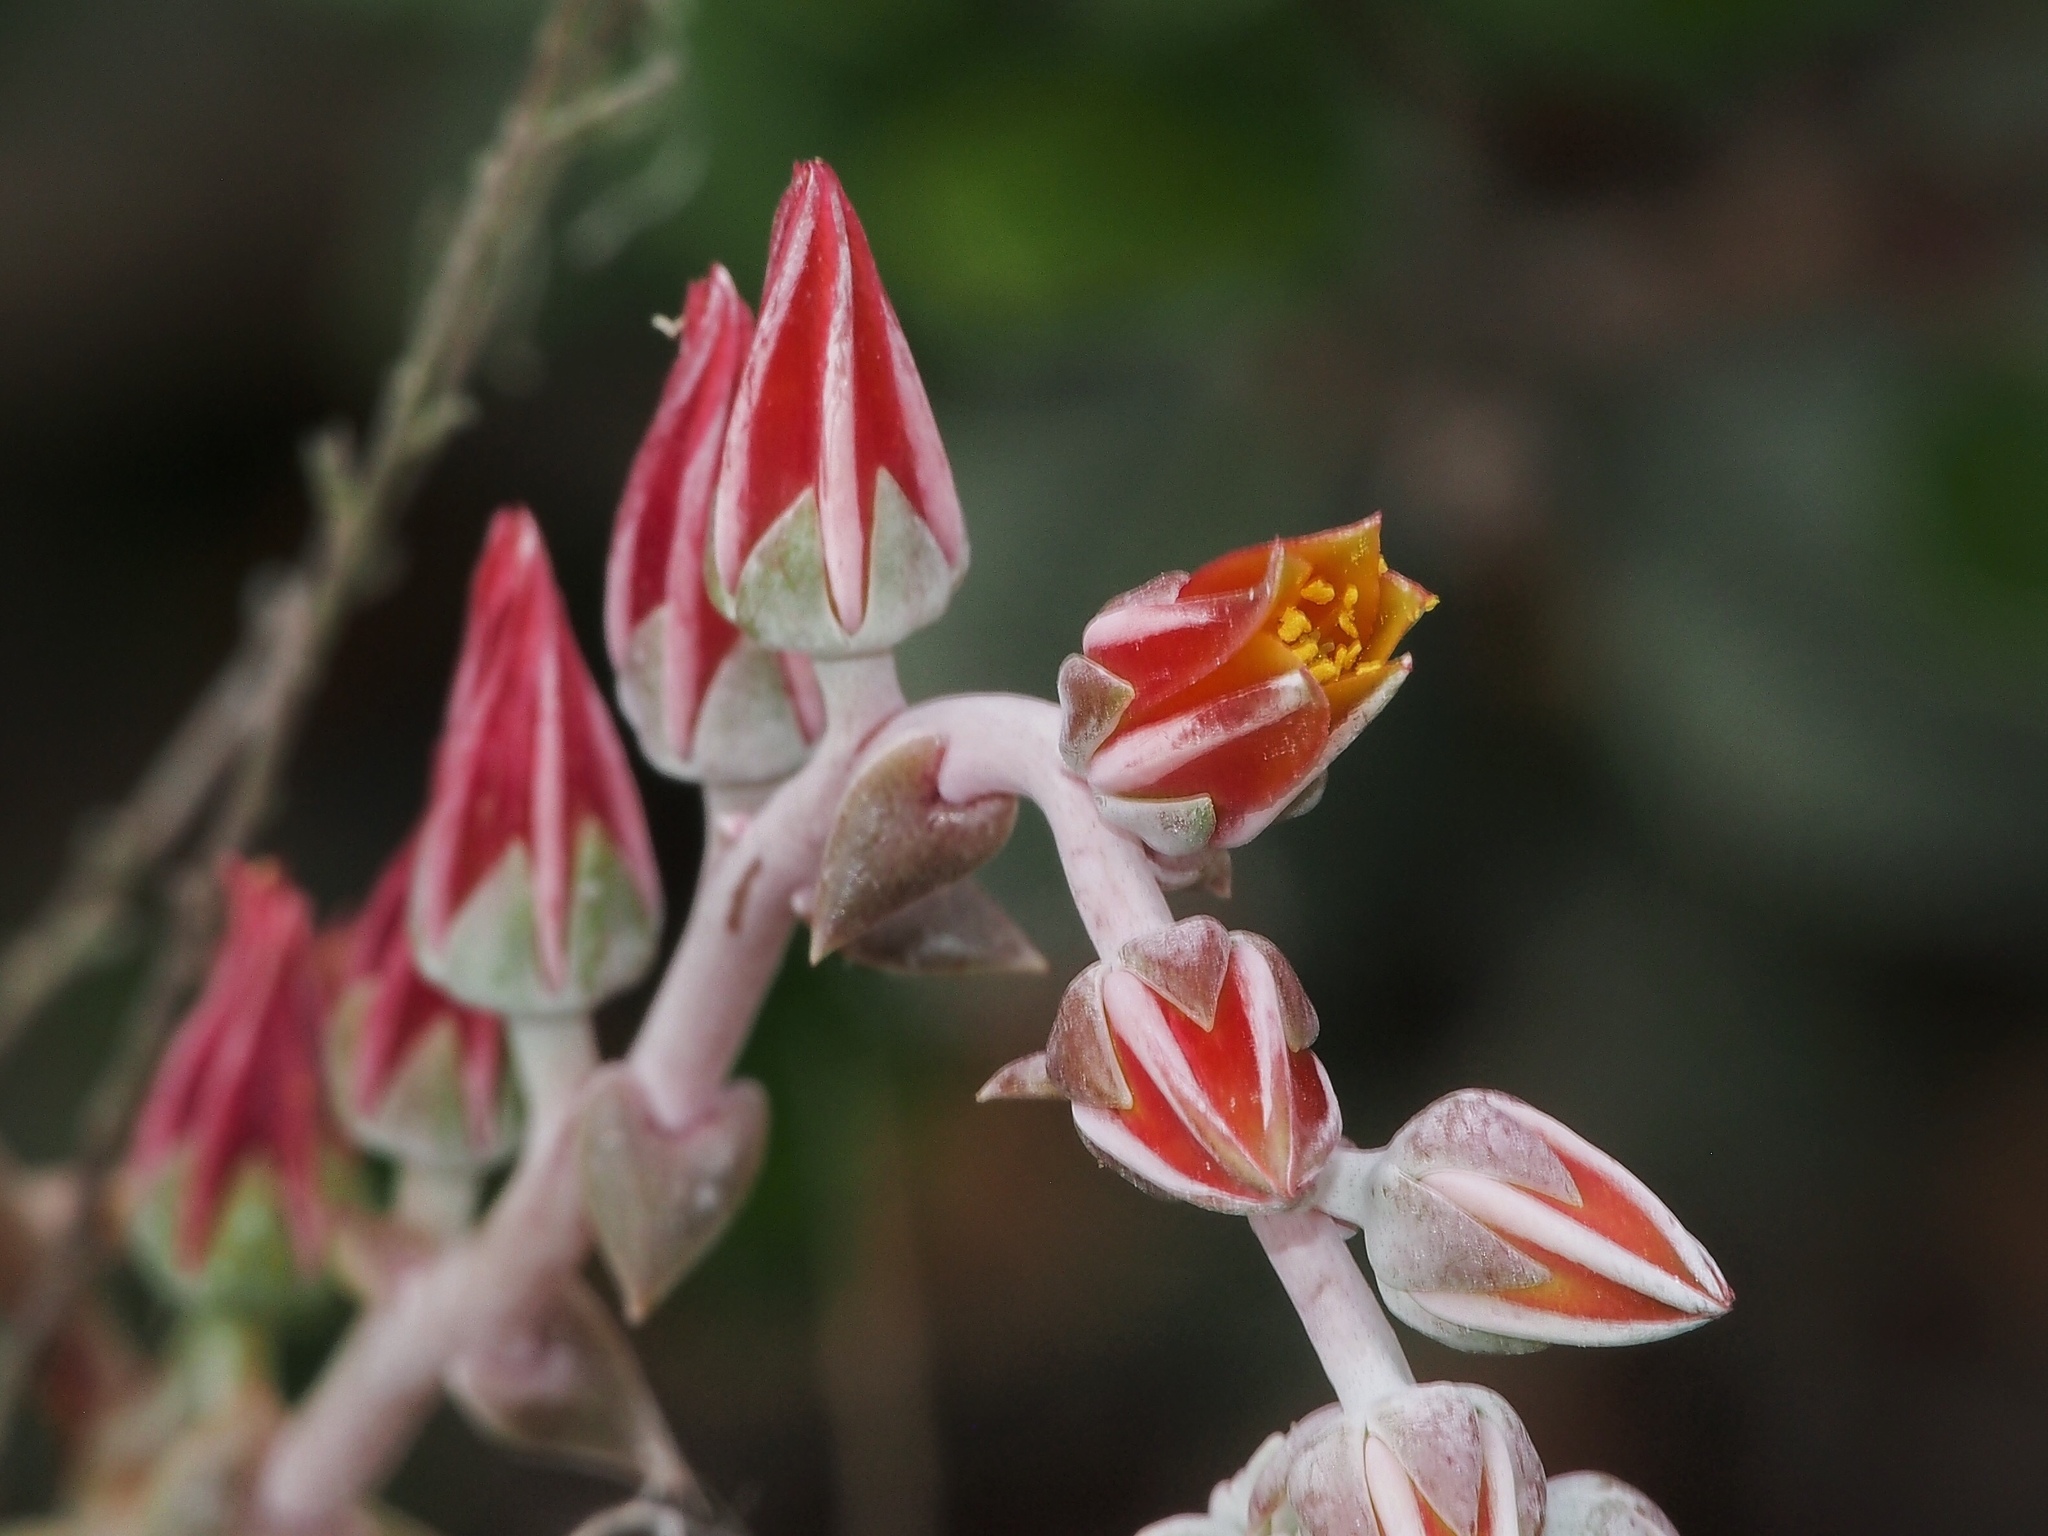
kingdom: Plantae
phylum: Tracheophyta
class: Magnoliopsida
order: Saxifragales
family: Crassulaceae
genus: Dudleya
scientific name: Dudleya lanceolata
